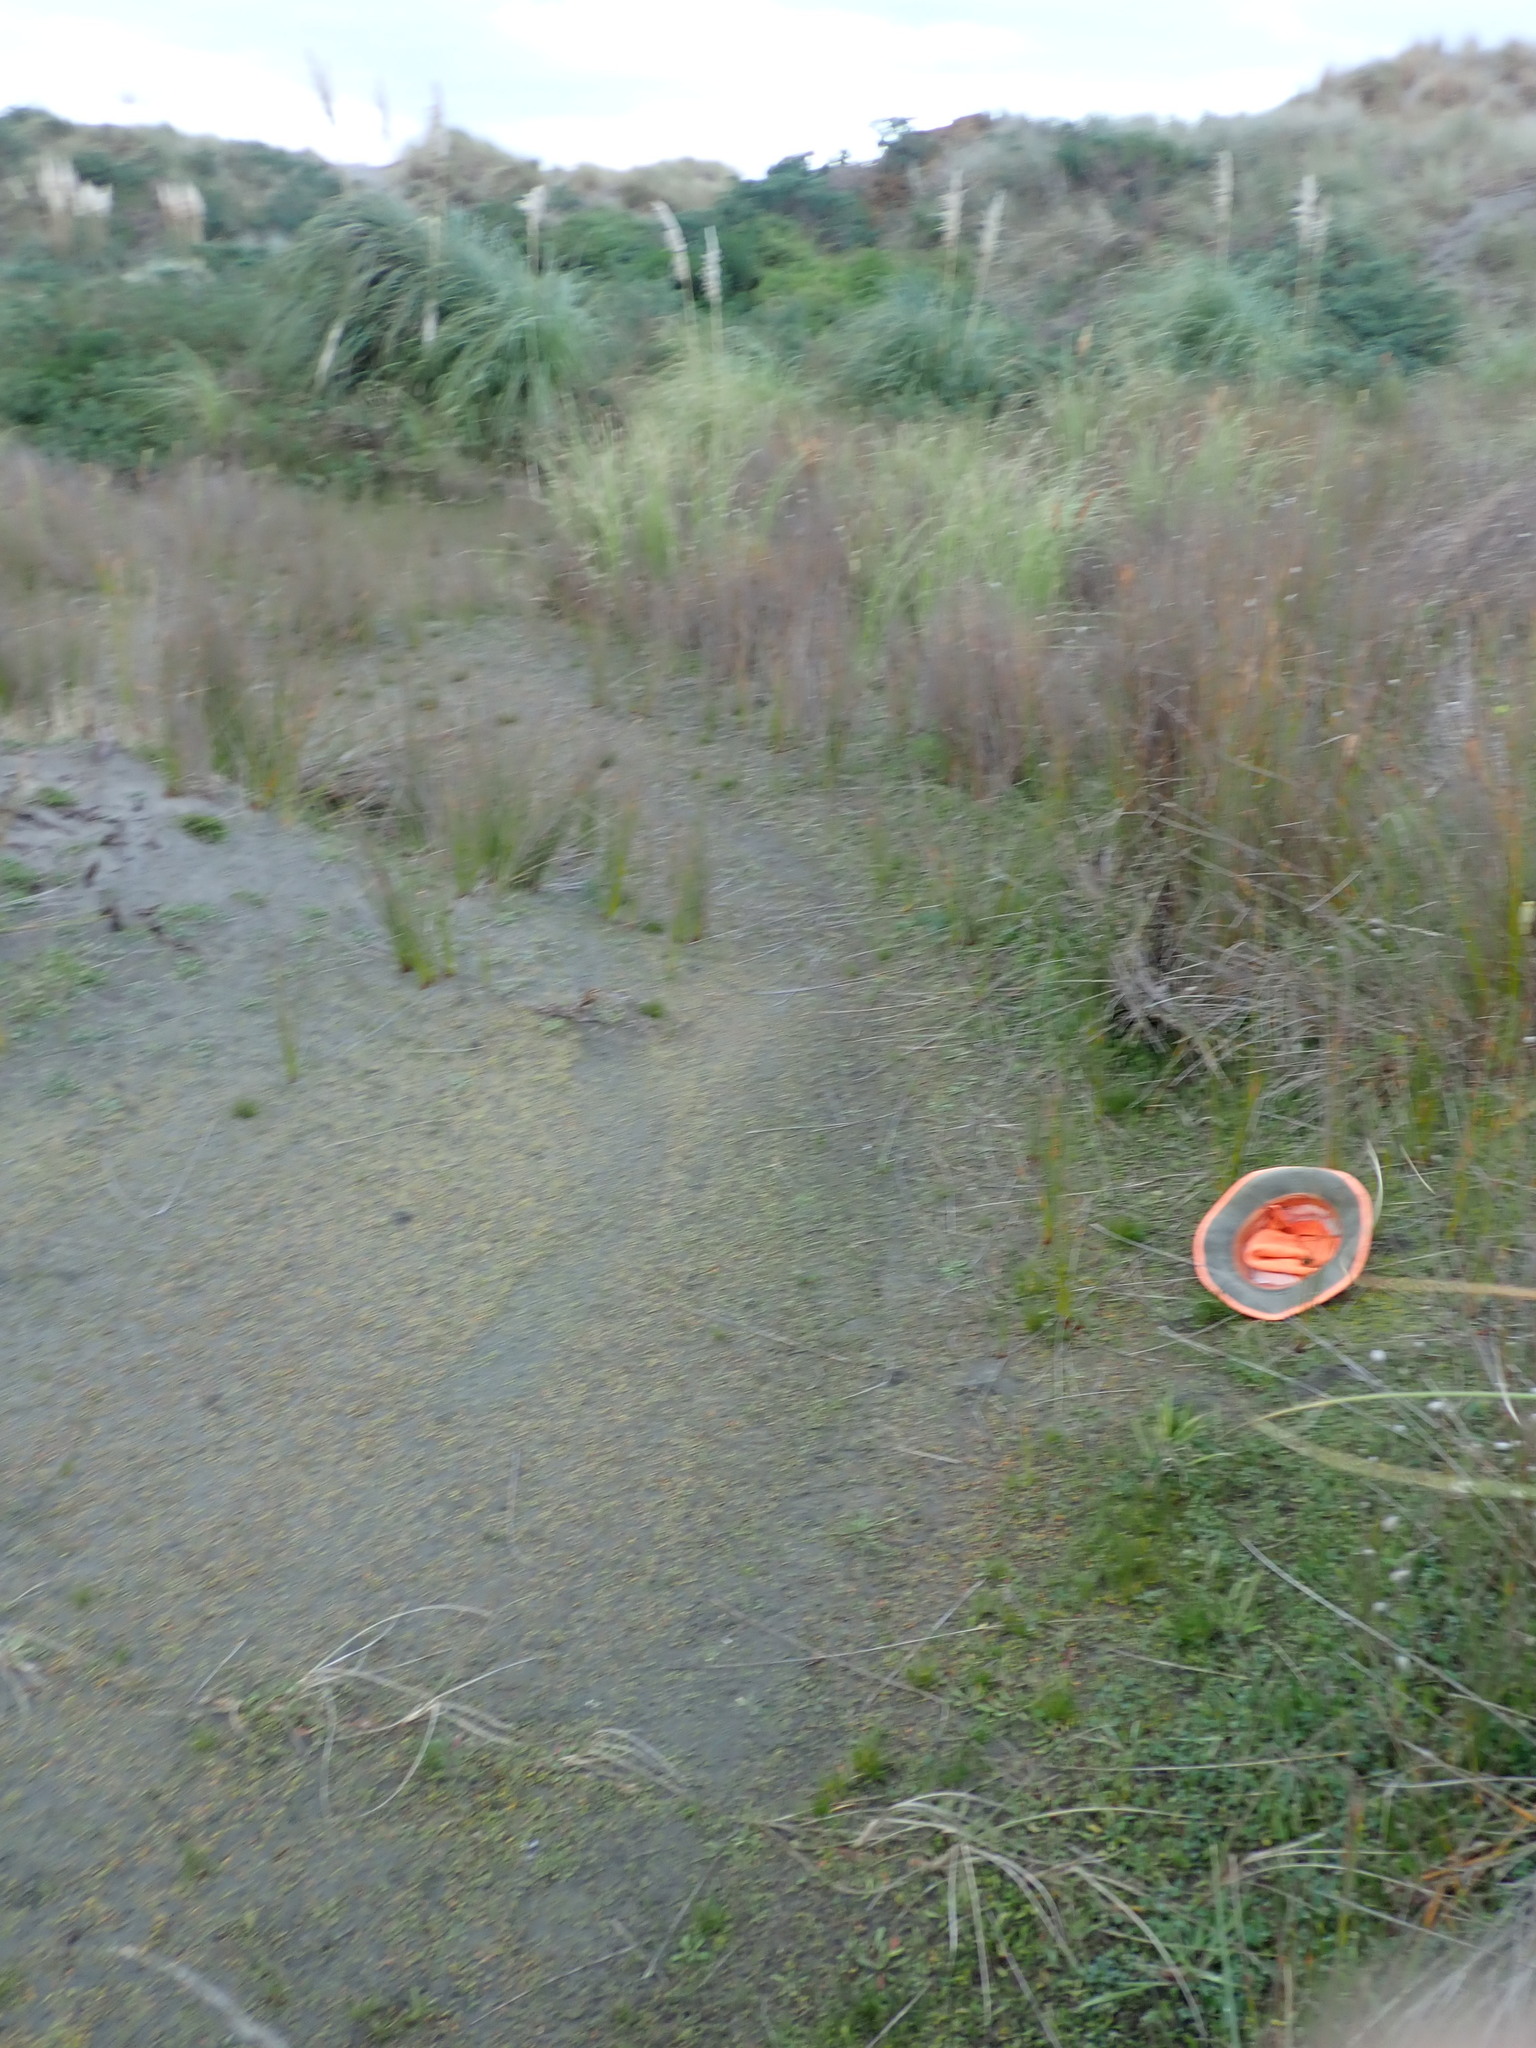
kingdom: Plantae
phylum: Tracheophyta
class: Liliopsida
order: Poales
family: Juncaceae
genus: Juncus
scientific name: Juncus caespiticius
